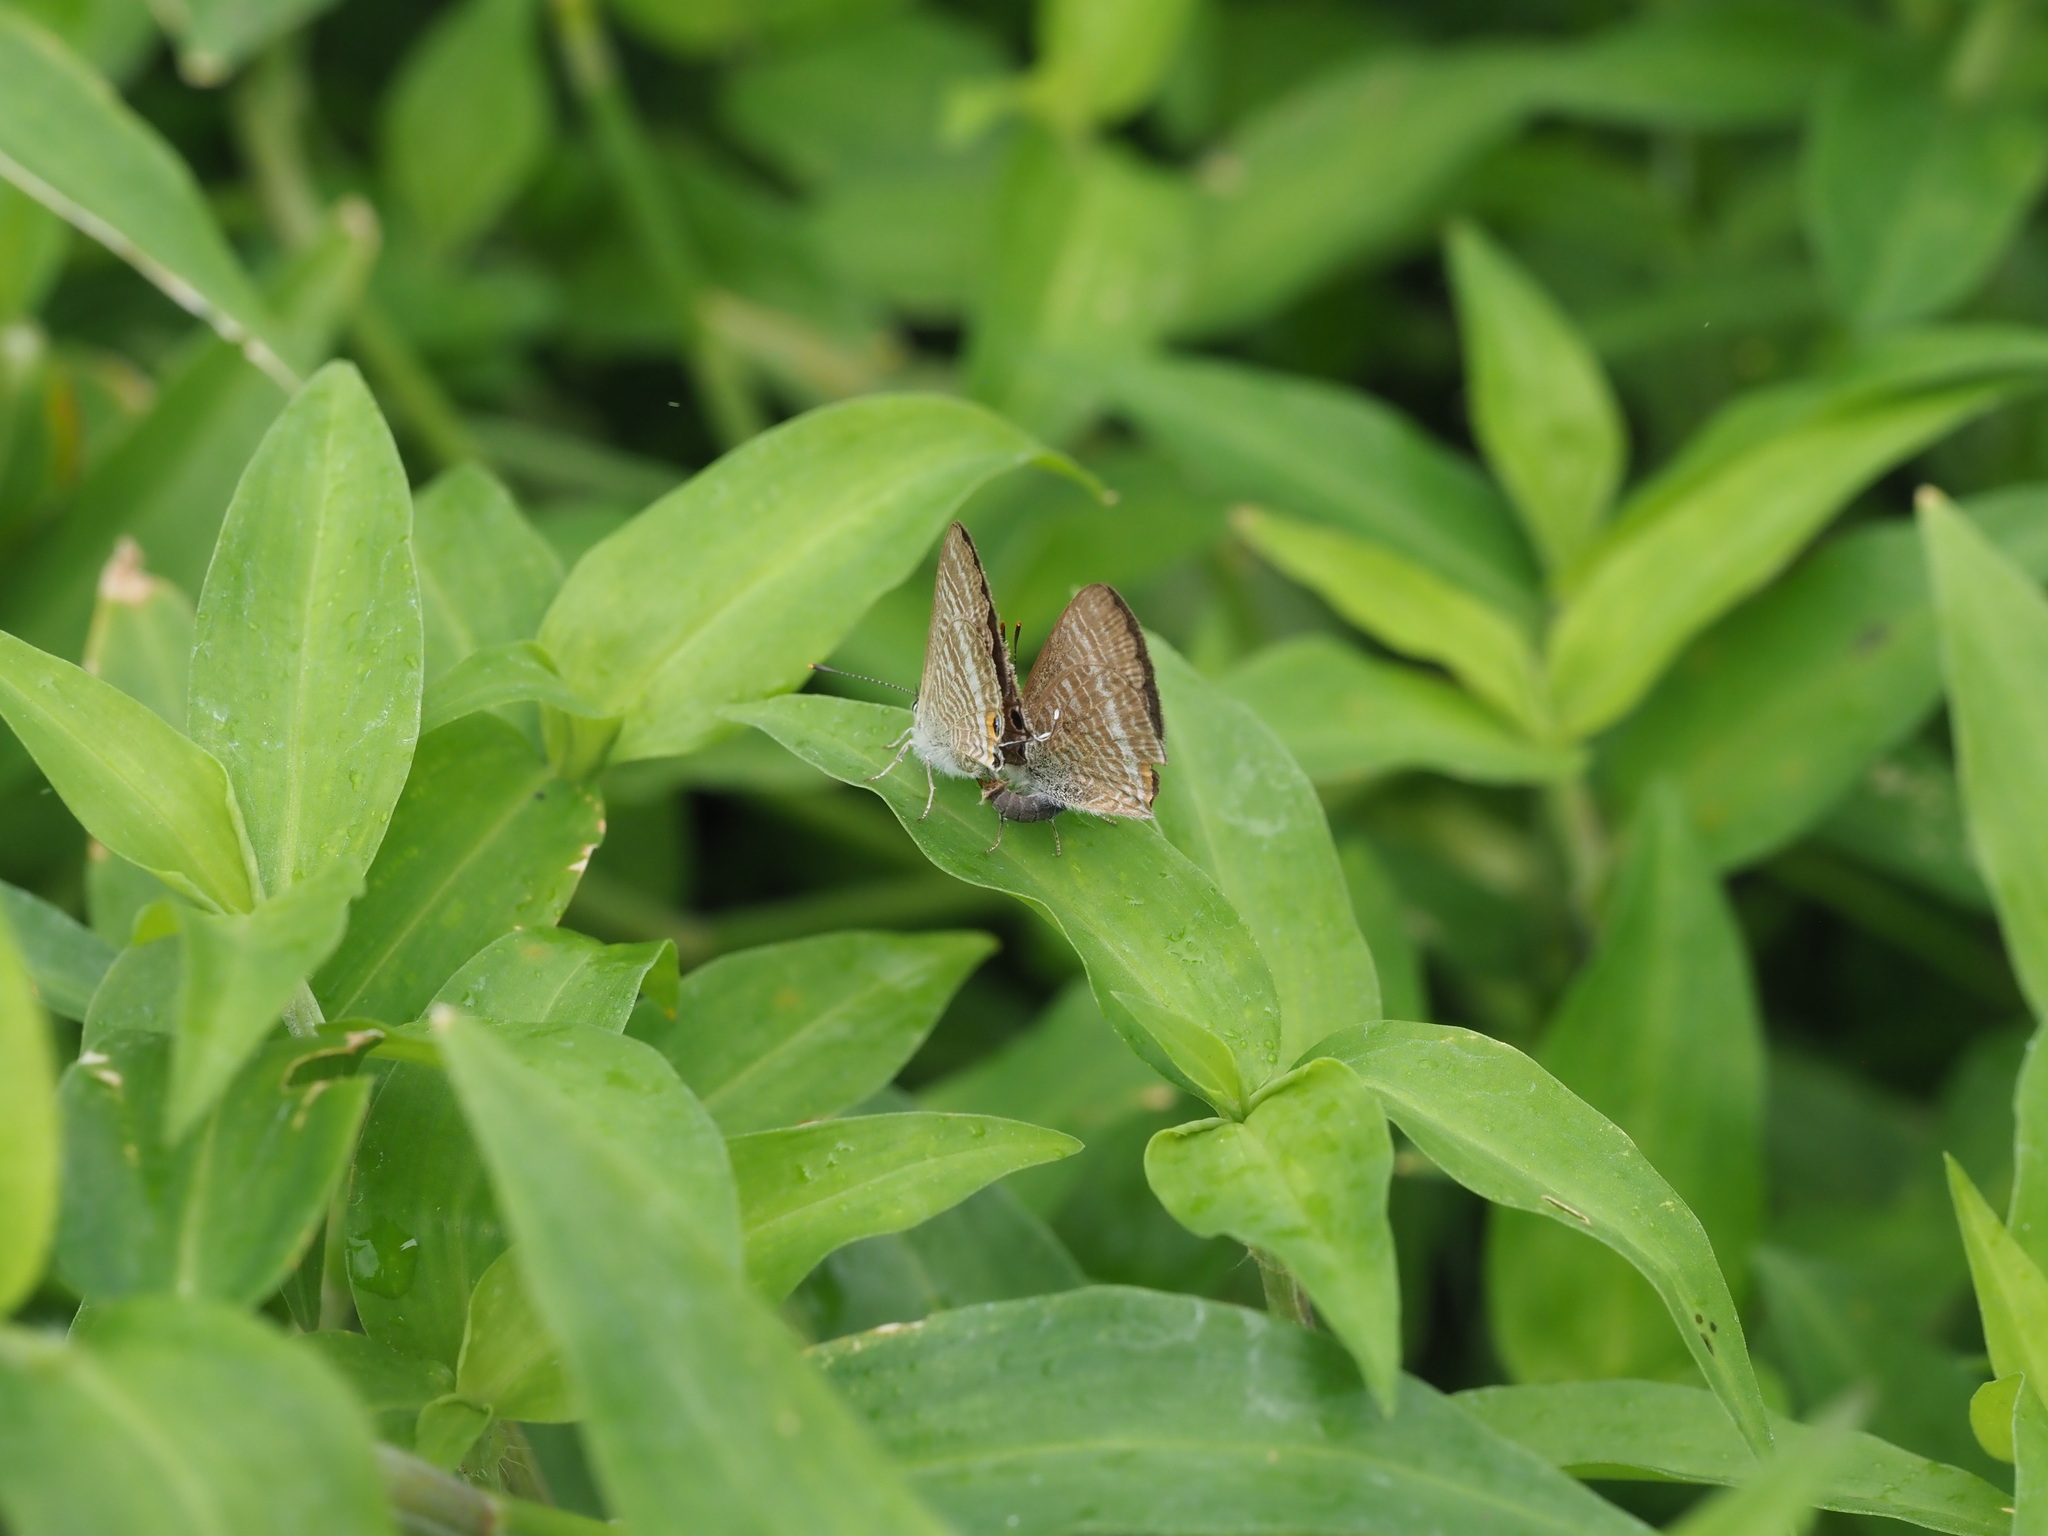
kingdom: Animalia
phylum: Arthropoda
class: Insecta
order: Lepidoptera
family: Lycaenidae
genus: Lampides
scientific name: Lampides boeticus
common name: Long-tailed blue
